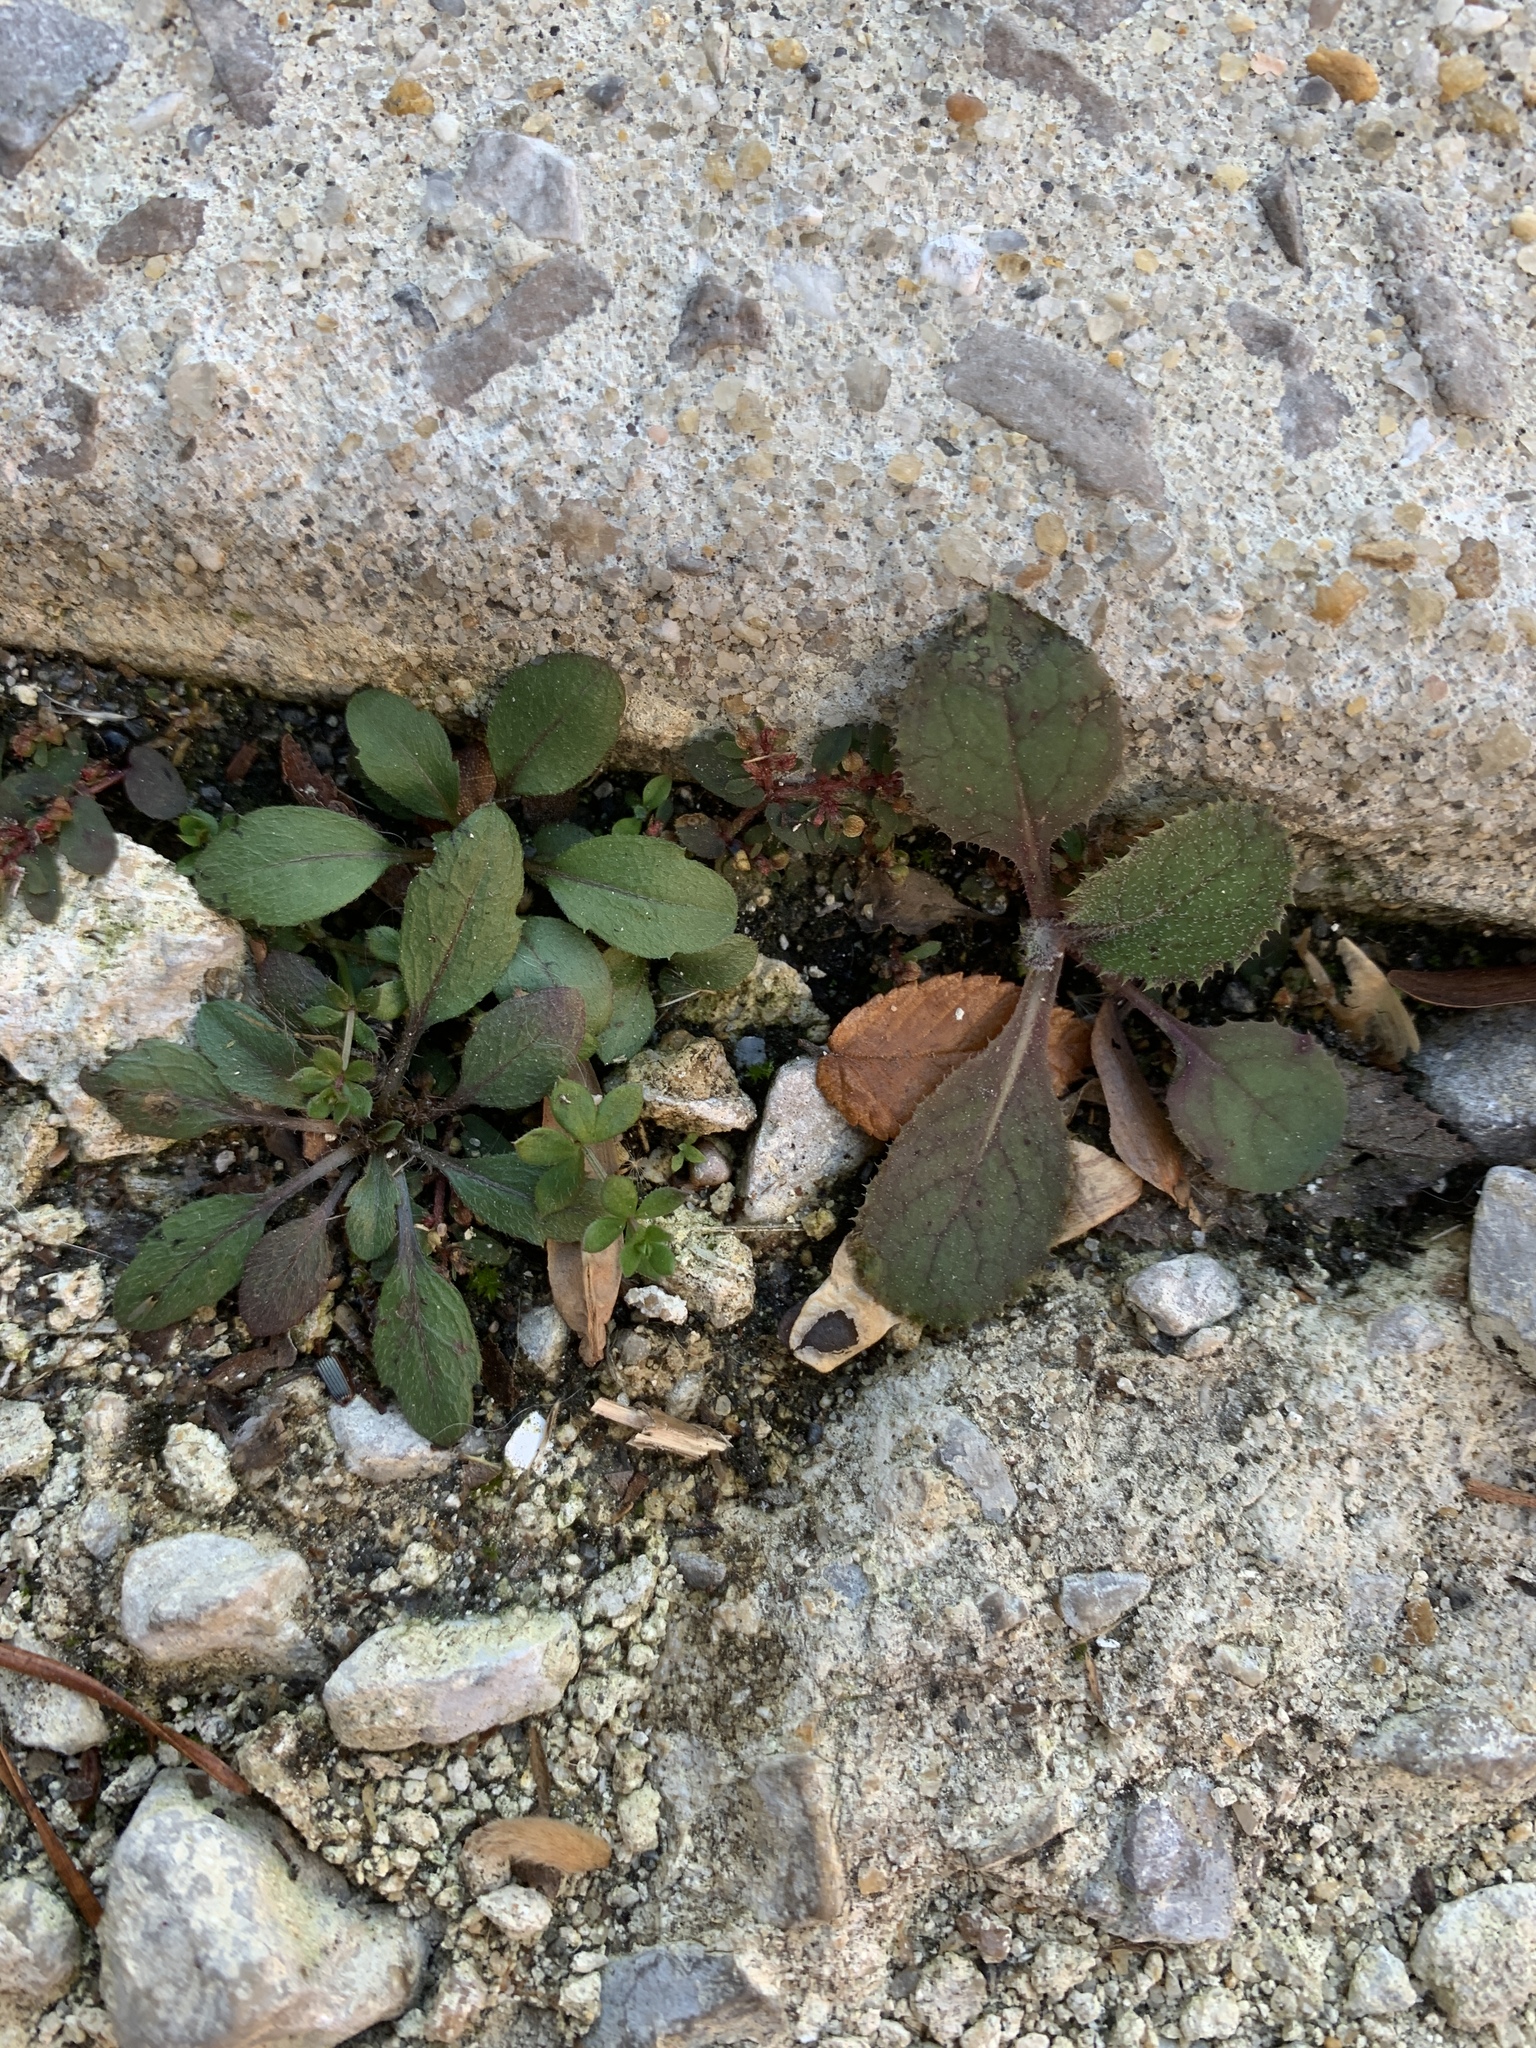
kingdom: Plantae
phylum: Tracheophyta
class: Magnoliopsida
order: Asterales
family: Asteraceae
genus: Hieracium
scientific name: Hieracium venosum
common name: Rattlesnake hawkweed
